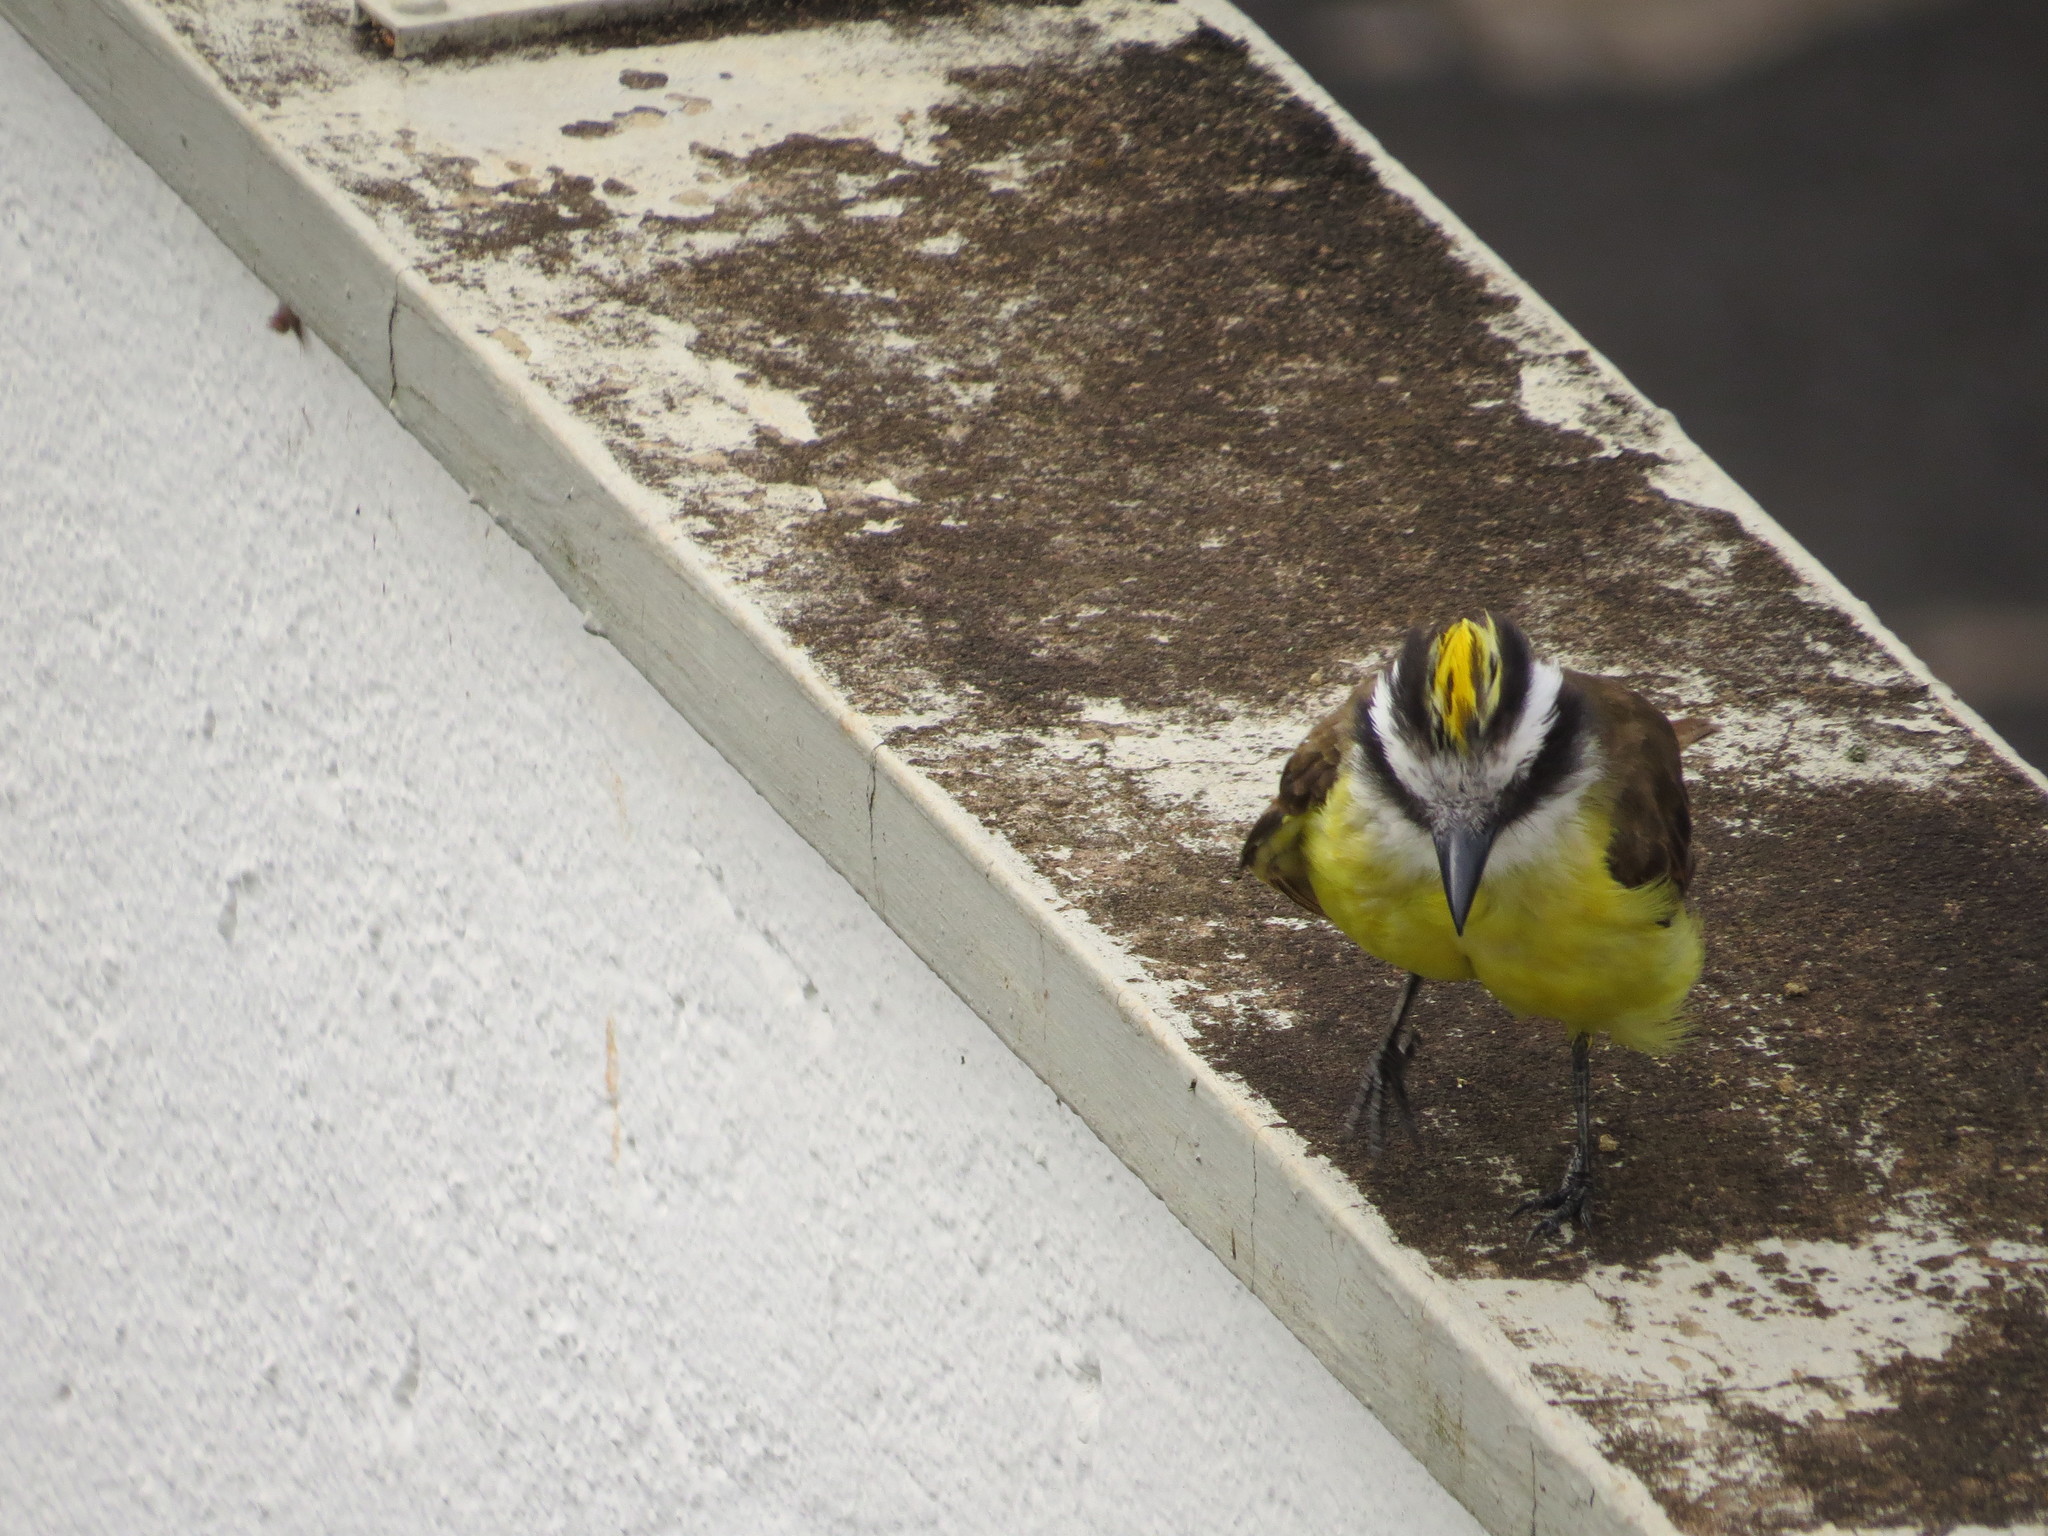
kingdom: Animalia
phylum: Chordata
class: Aves
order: Passeriformes
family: Tyrannidae
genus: Pitangus
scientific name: Pitangus sulphuratus
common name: Great kiskadee
